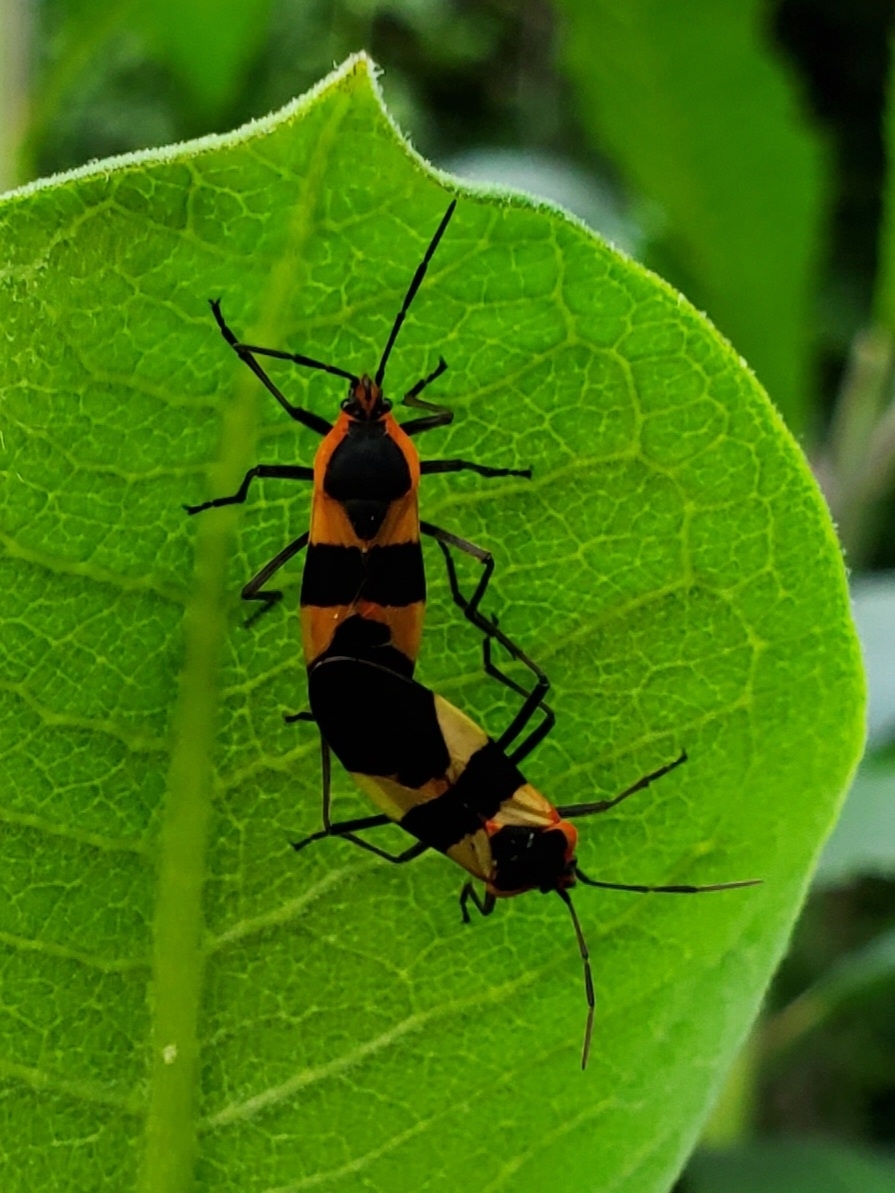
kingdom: Animalia
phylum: Arthropoda
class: Insecta
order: Hemiptera
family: Lygaeidae
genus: Oncopeltus
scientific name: Oncopeltus fasciatus
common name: Large milkweed bug
